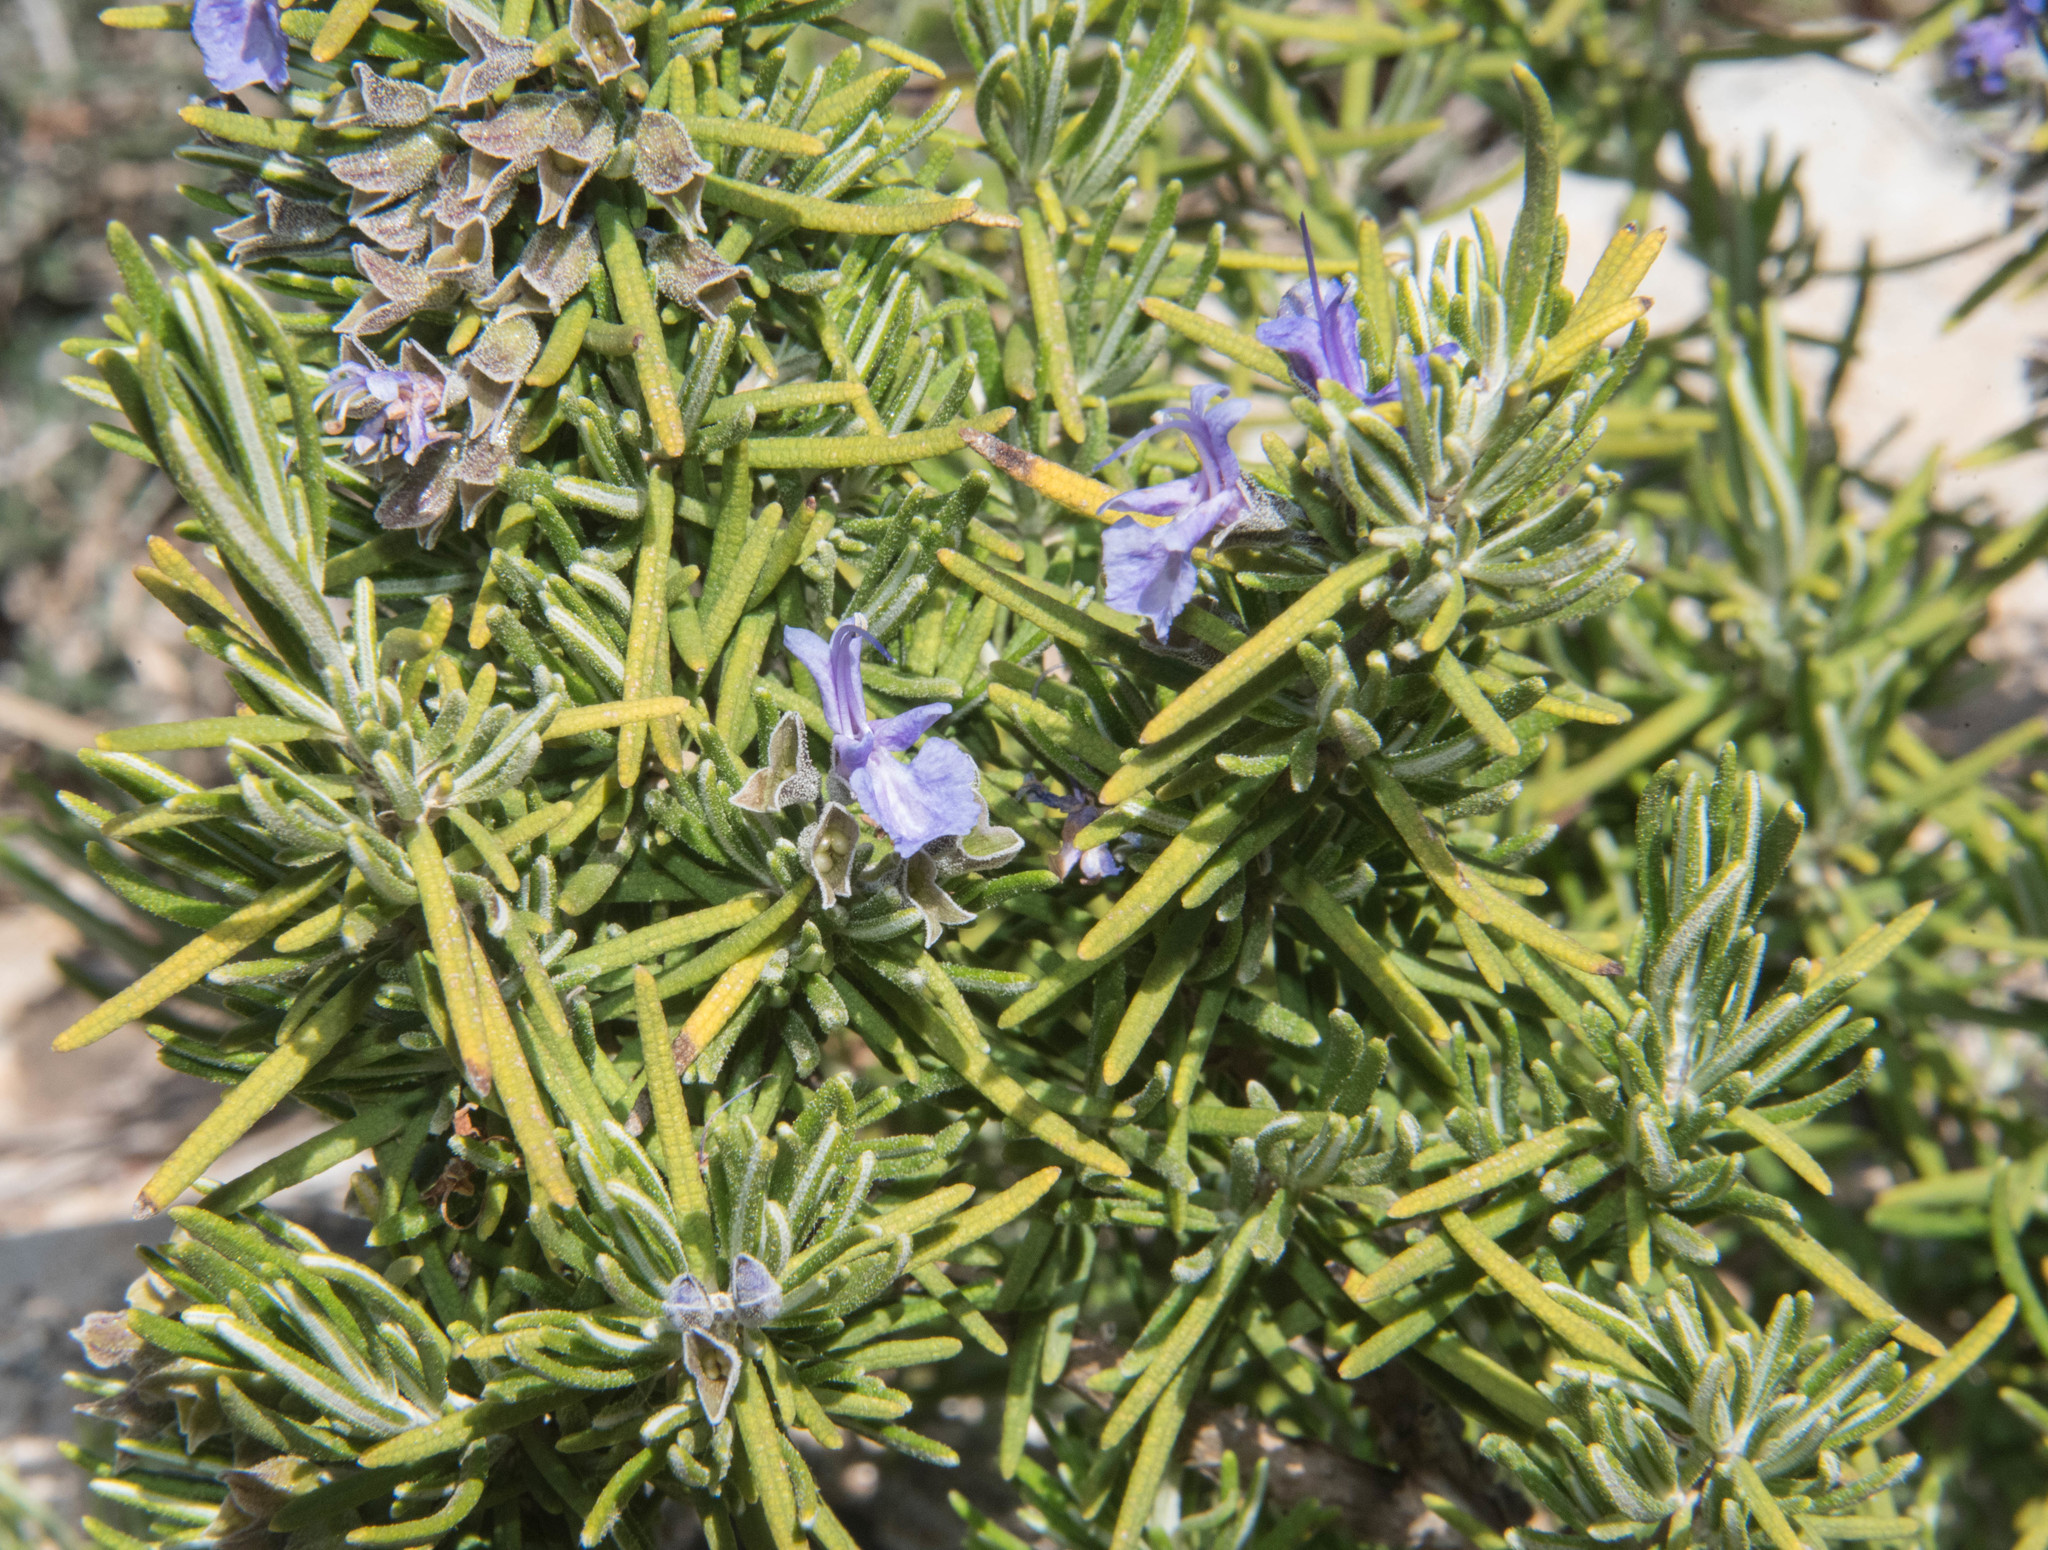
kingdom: Plantae
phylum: Tracheophyta
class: Magnoliopsida
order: Lamiales
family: Lamiaceae
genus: Salvia
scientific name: Salvia rosmarinus
